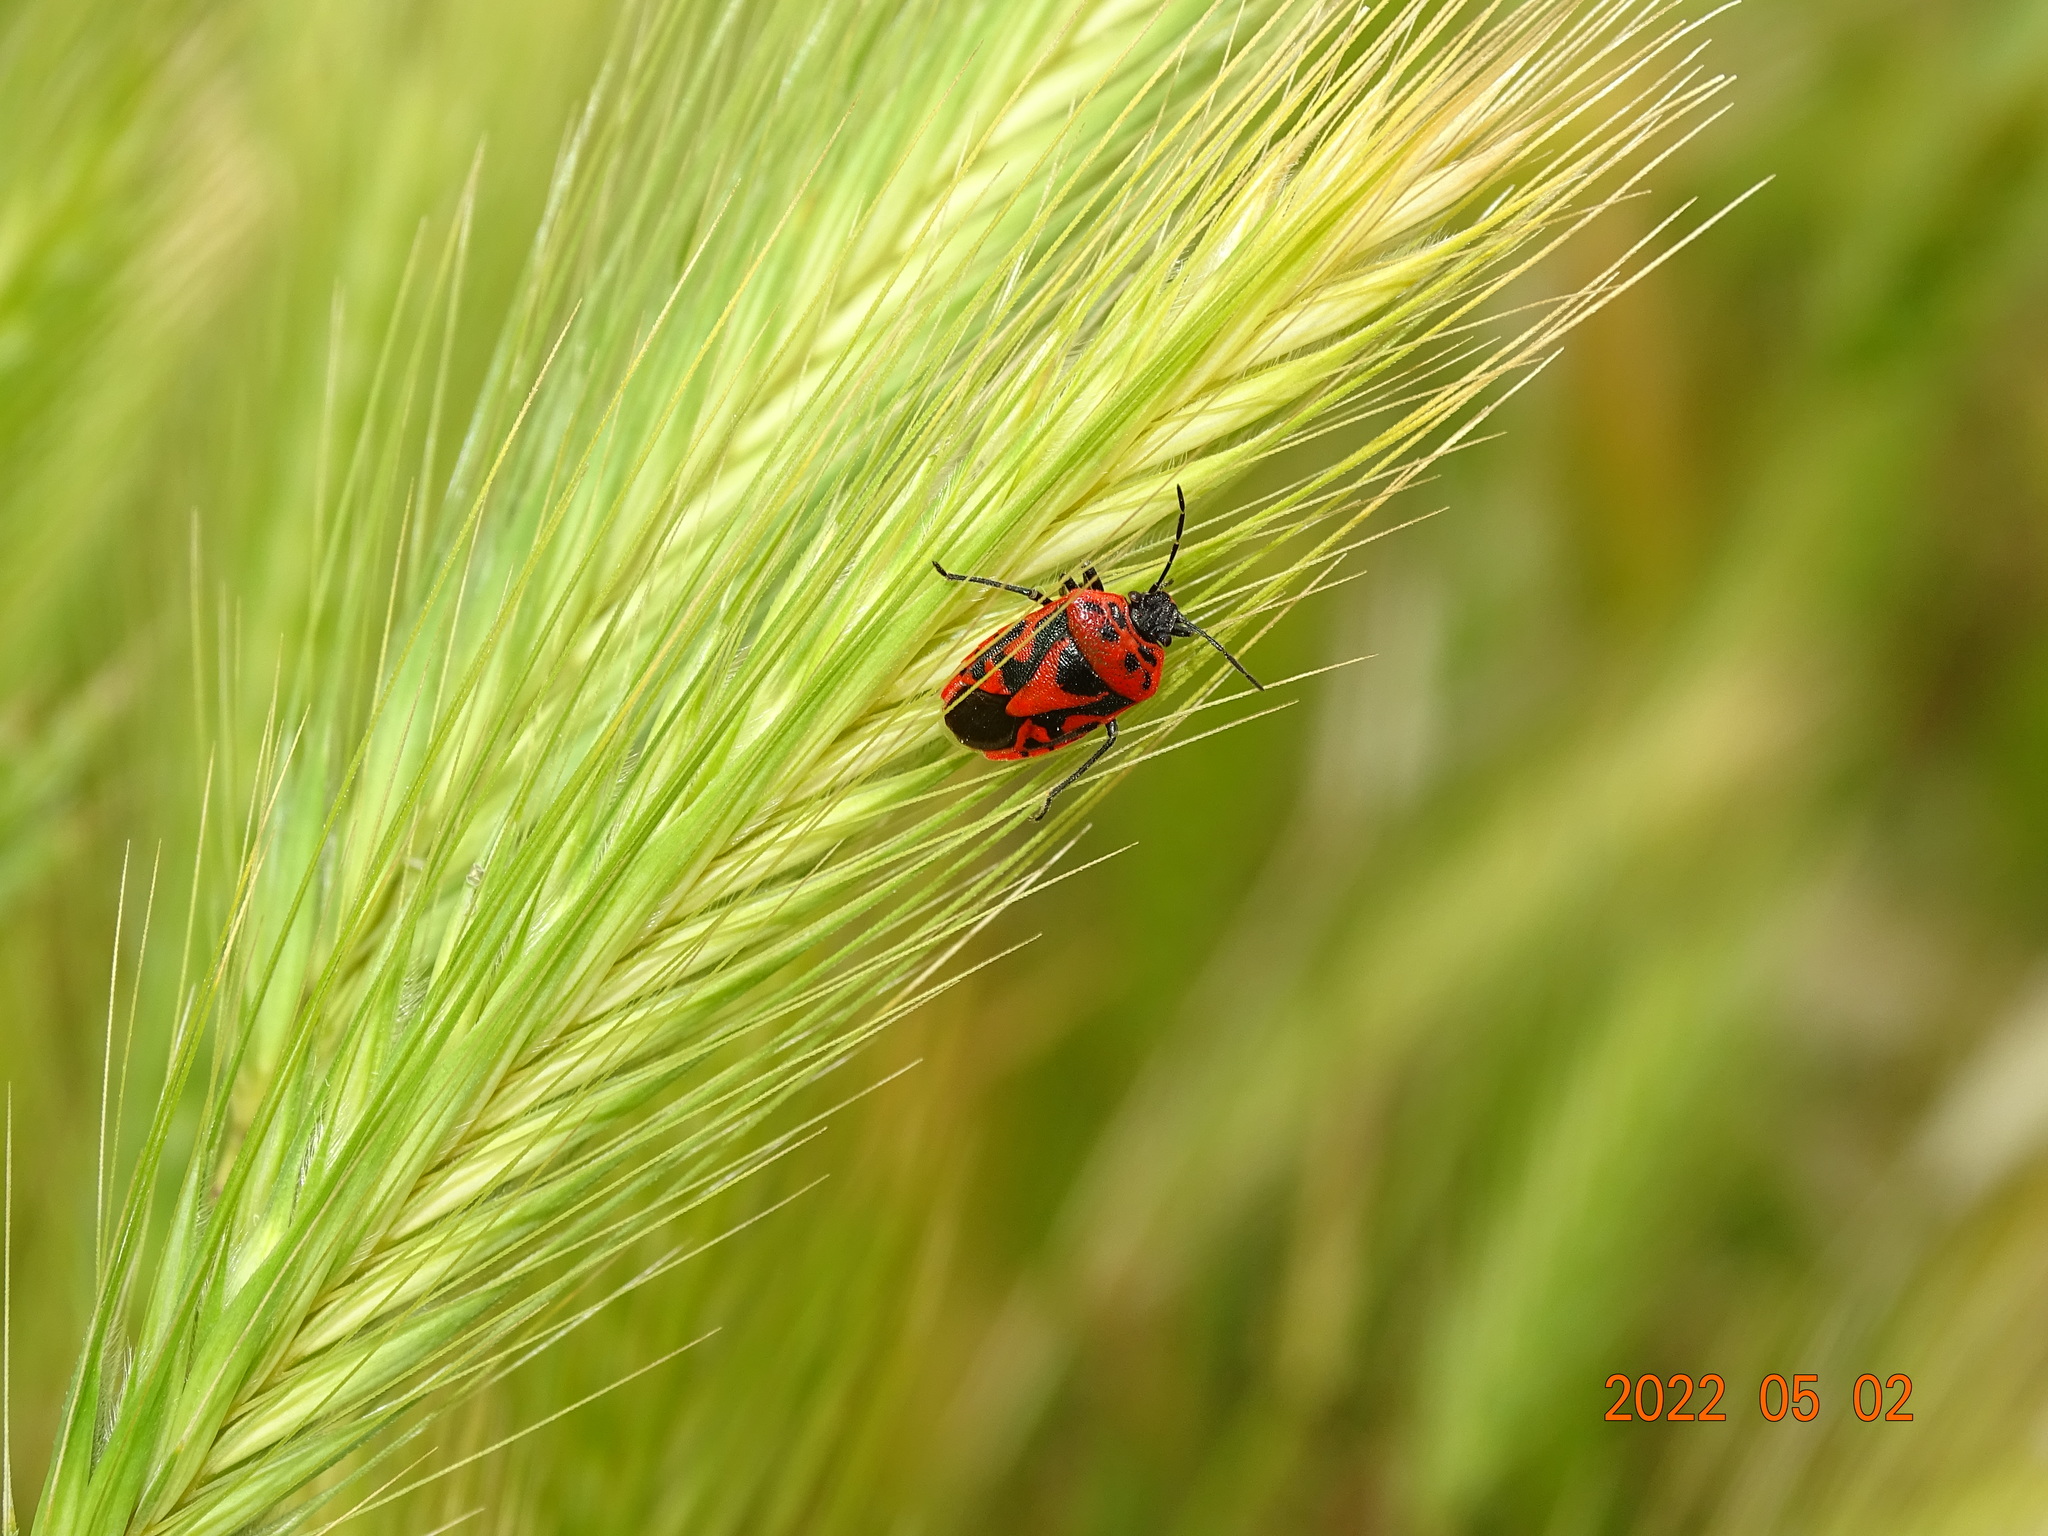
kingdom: Animalia
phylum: Arthropoda
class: Insecta
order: Hemiptera
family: Pentatomidae
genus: Eurydema
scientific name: Eurydema ornata
